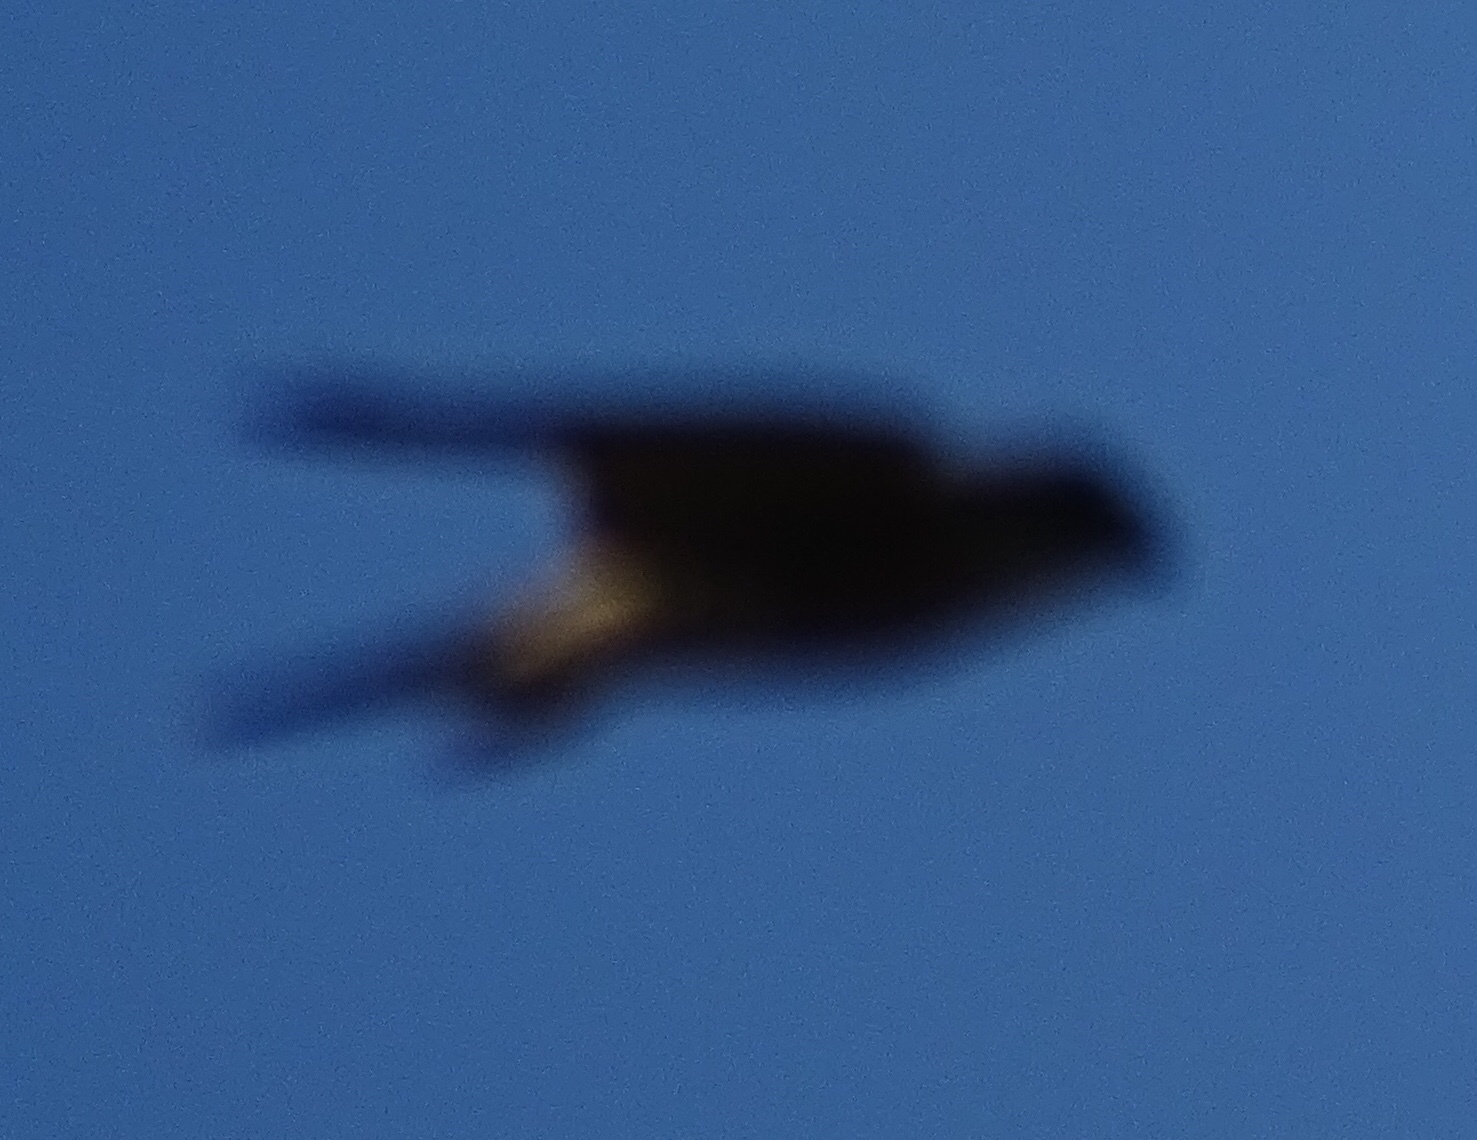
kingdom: Animalia
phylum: Chordata
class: Aves
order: Falconiformes
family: Falconidae
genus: Falco
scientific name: Falco columbarius
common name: Merlin
